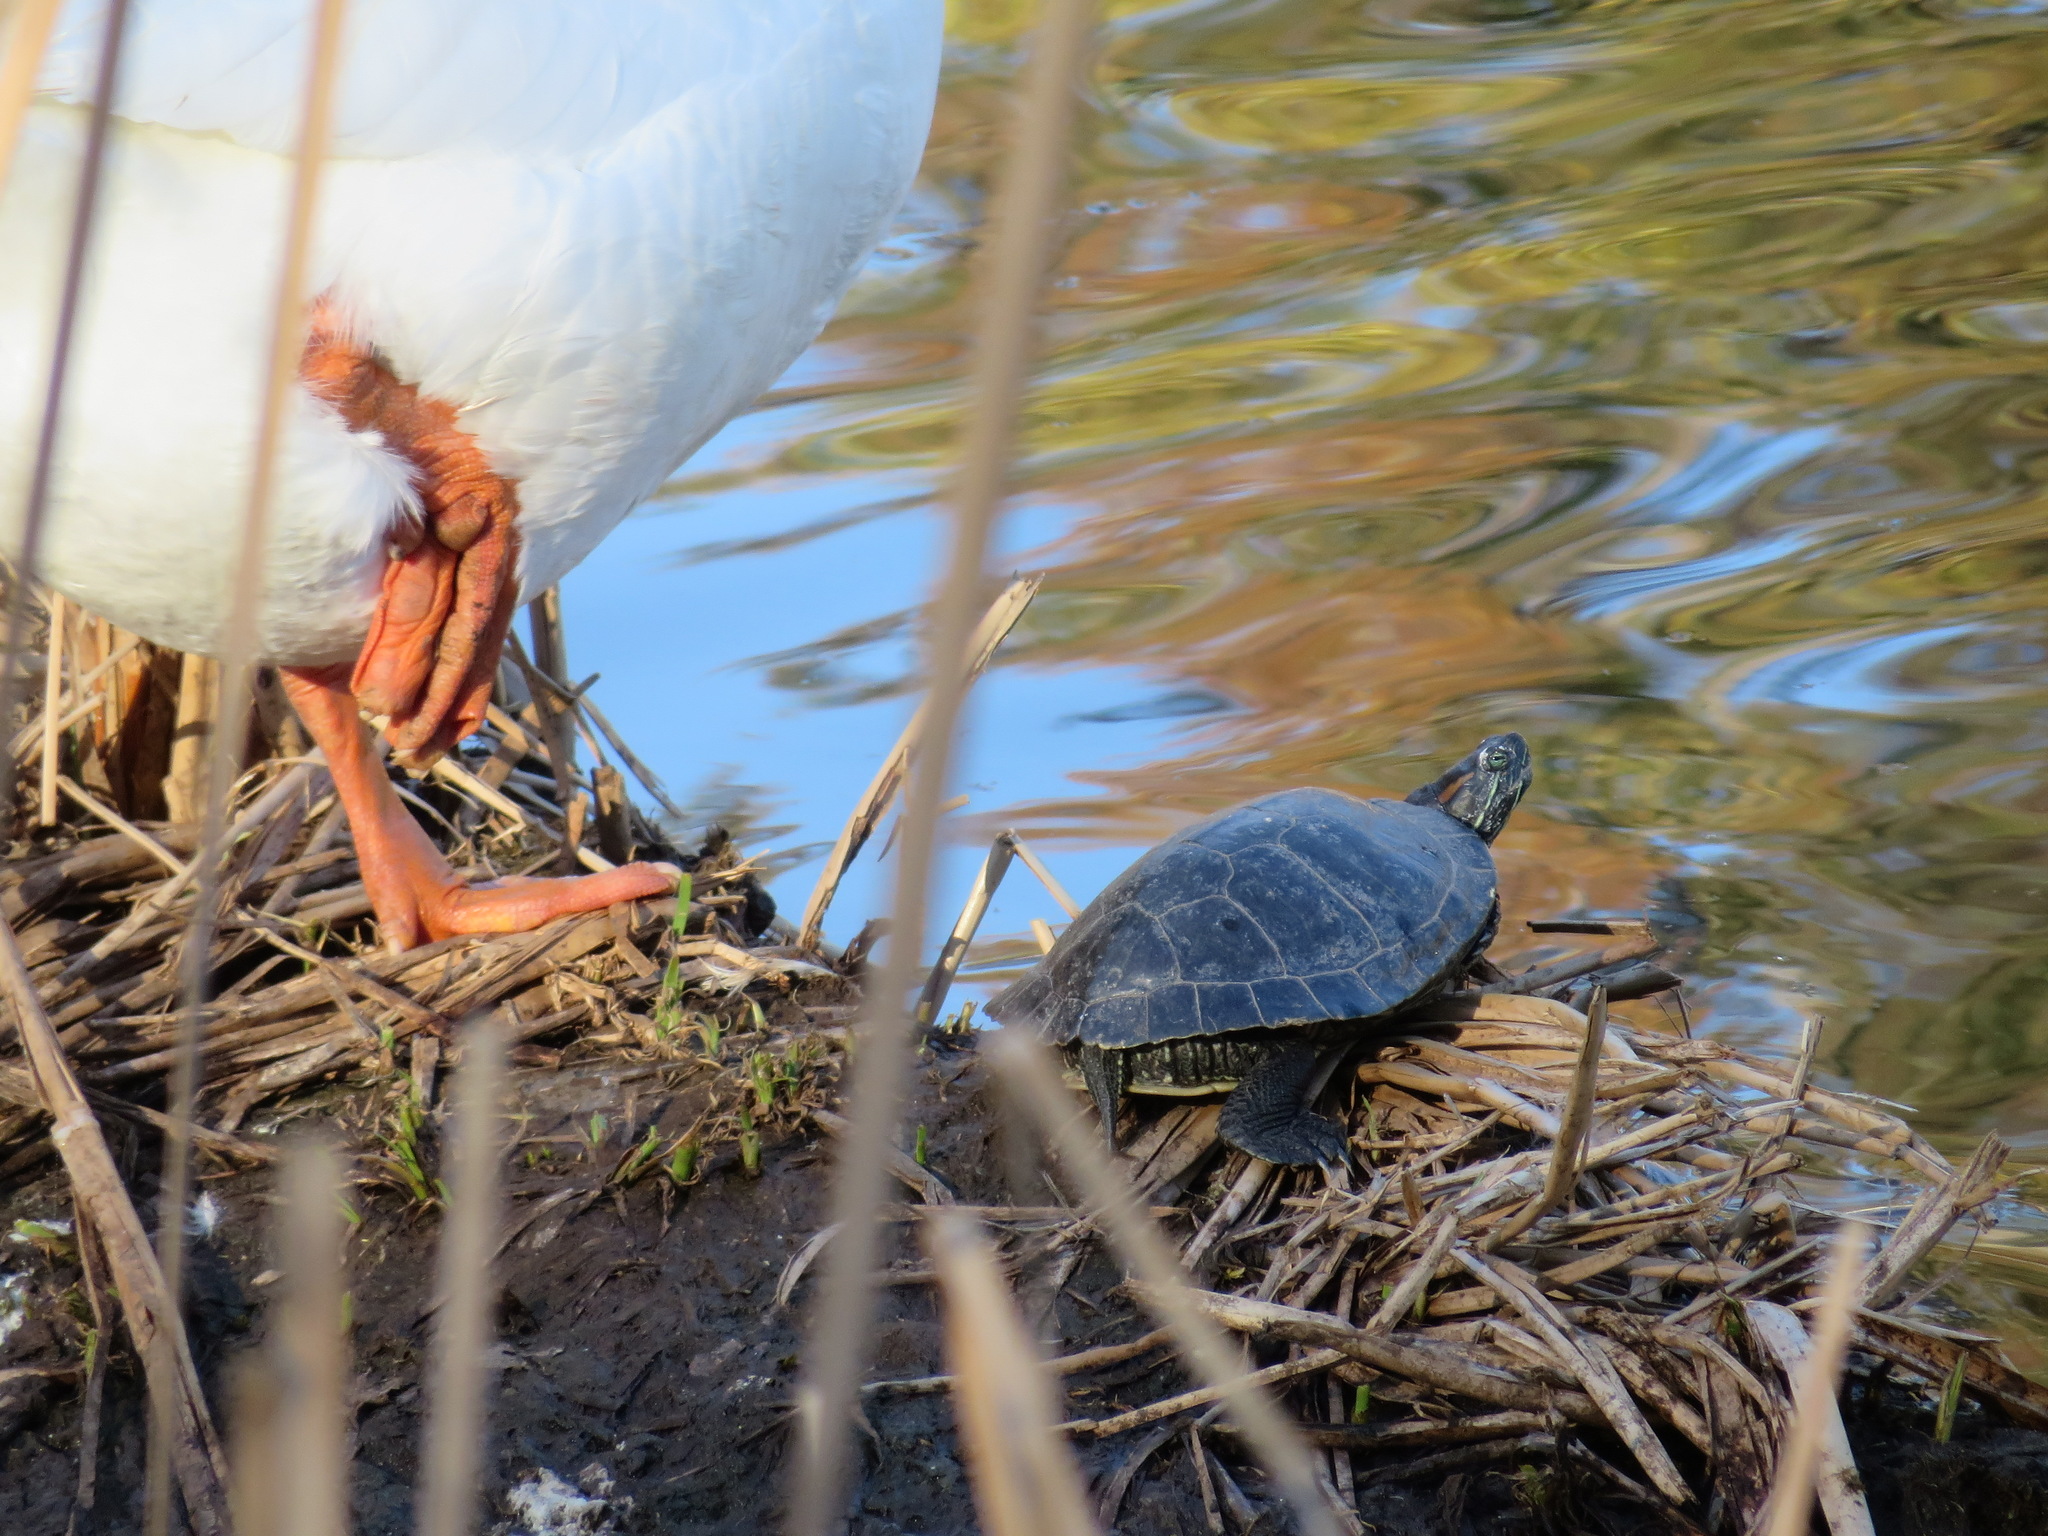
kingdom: Animalia
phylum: Chordata
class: Testudines
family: Emydidae
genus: Trachemys
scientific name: Trachemys scripta
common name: Slider
